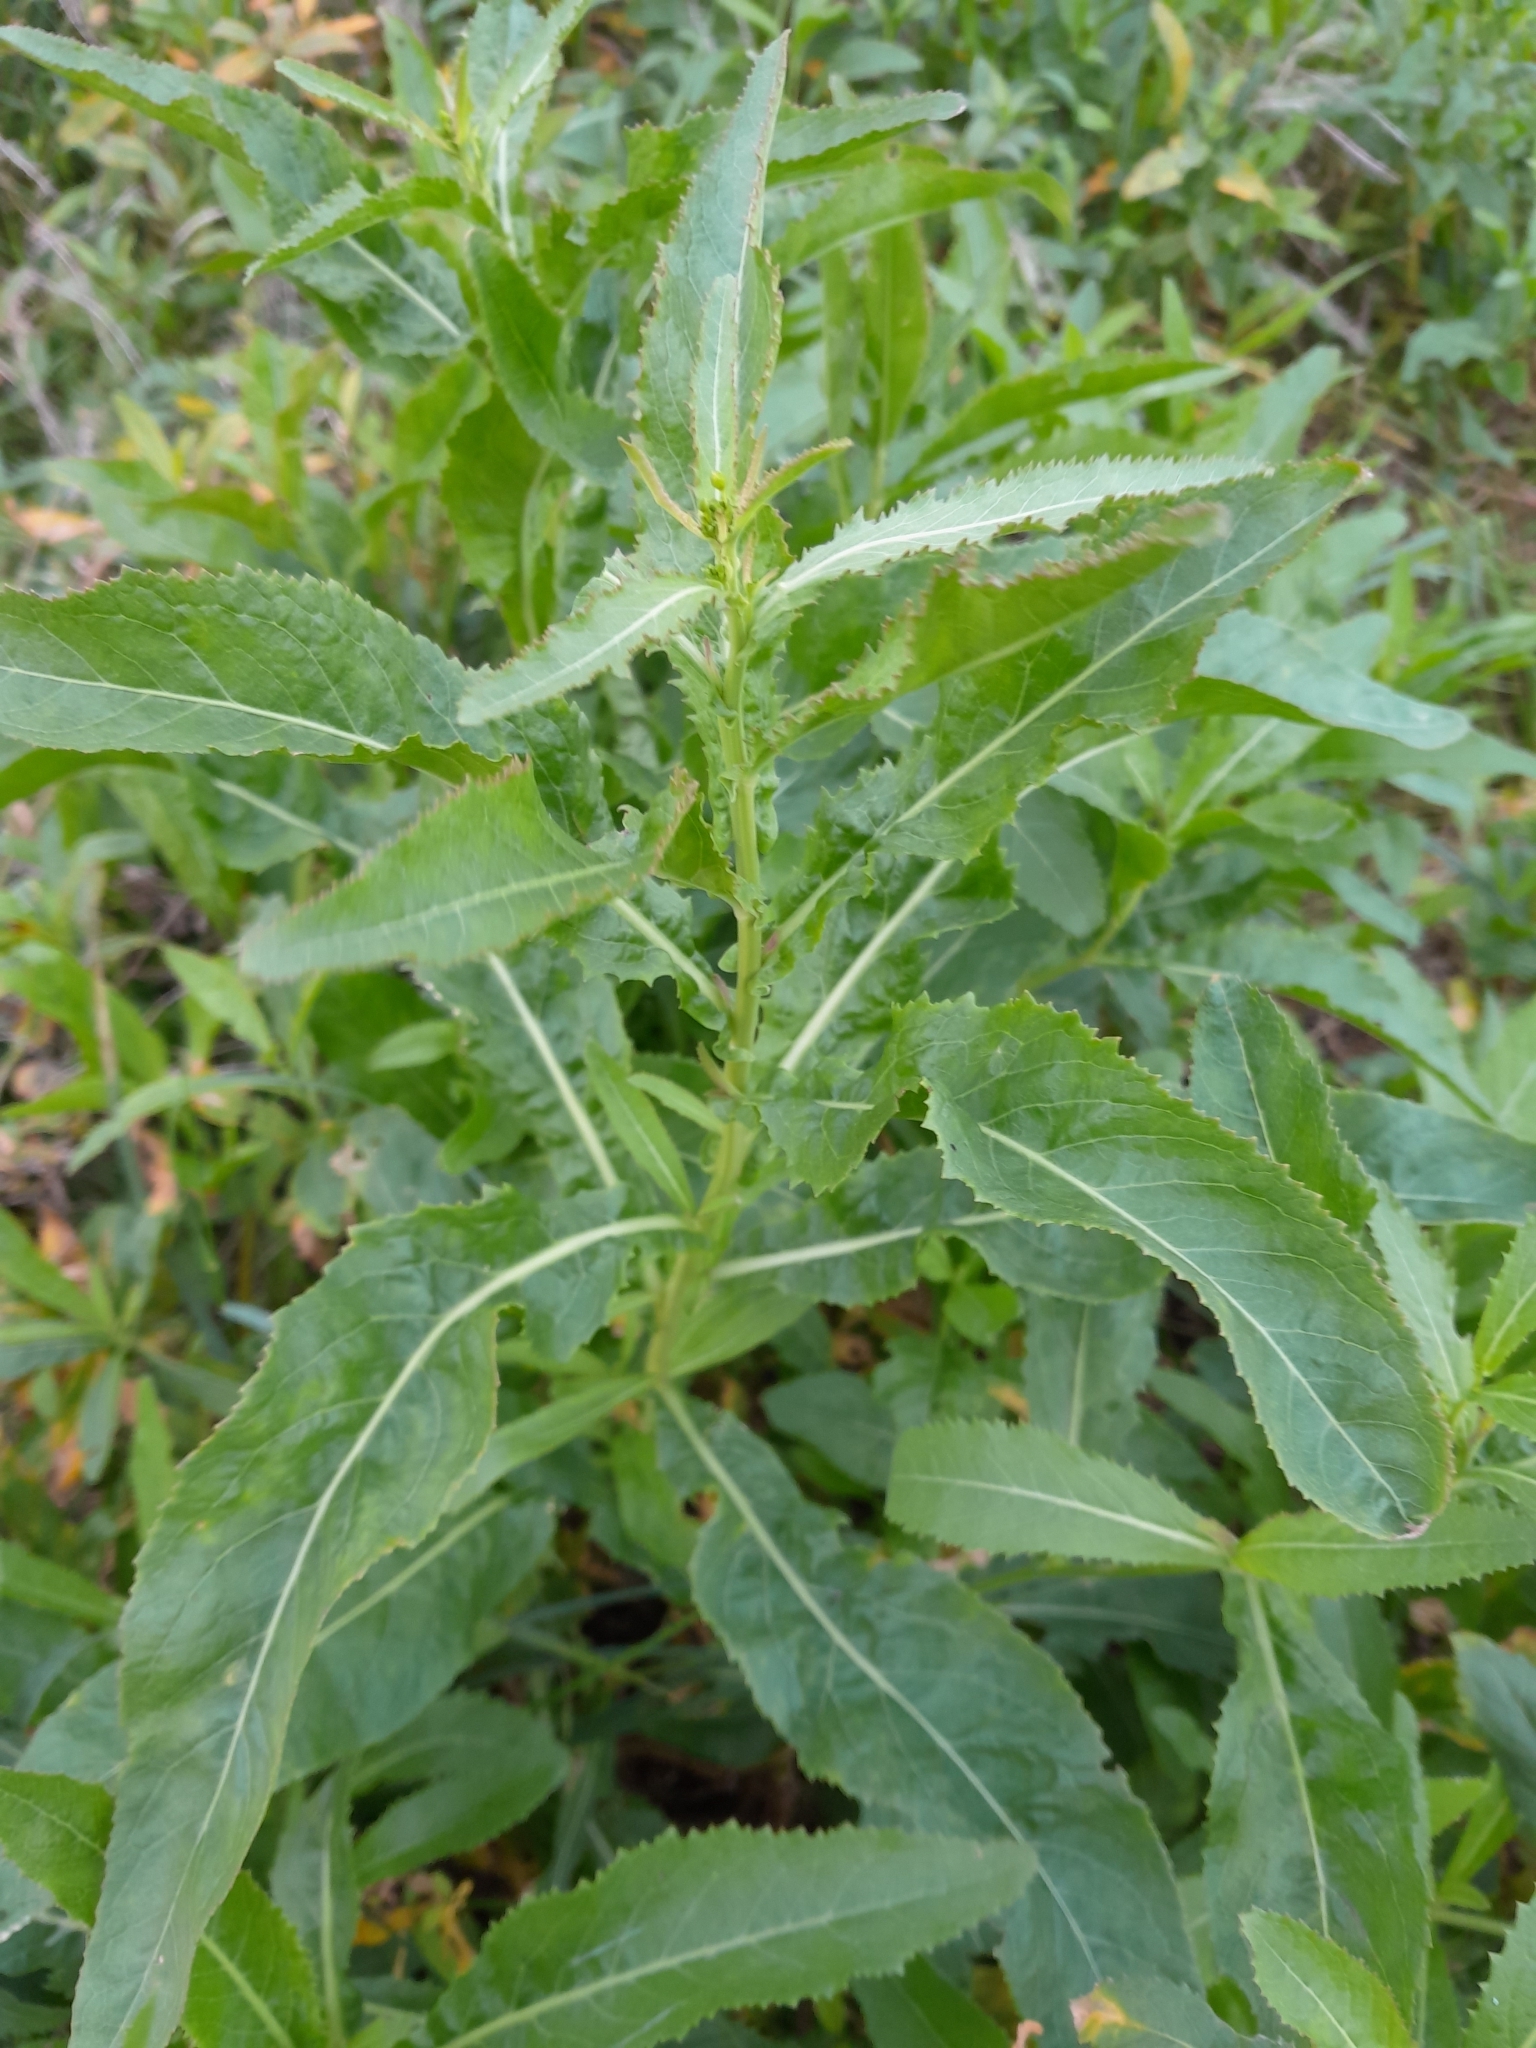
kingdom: Plantae
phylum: Tracheophyta
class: Magnoliopsida
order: Brassicales
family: Brassicaceae
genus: Rorippa
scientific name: Rorippa austriaca
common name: Austrian yellow-cress
